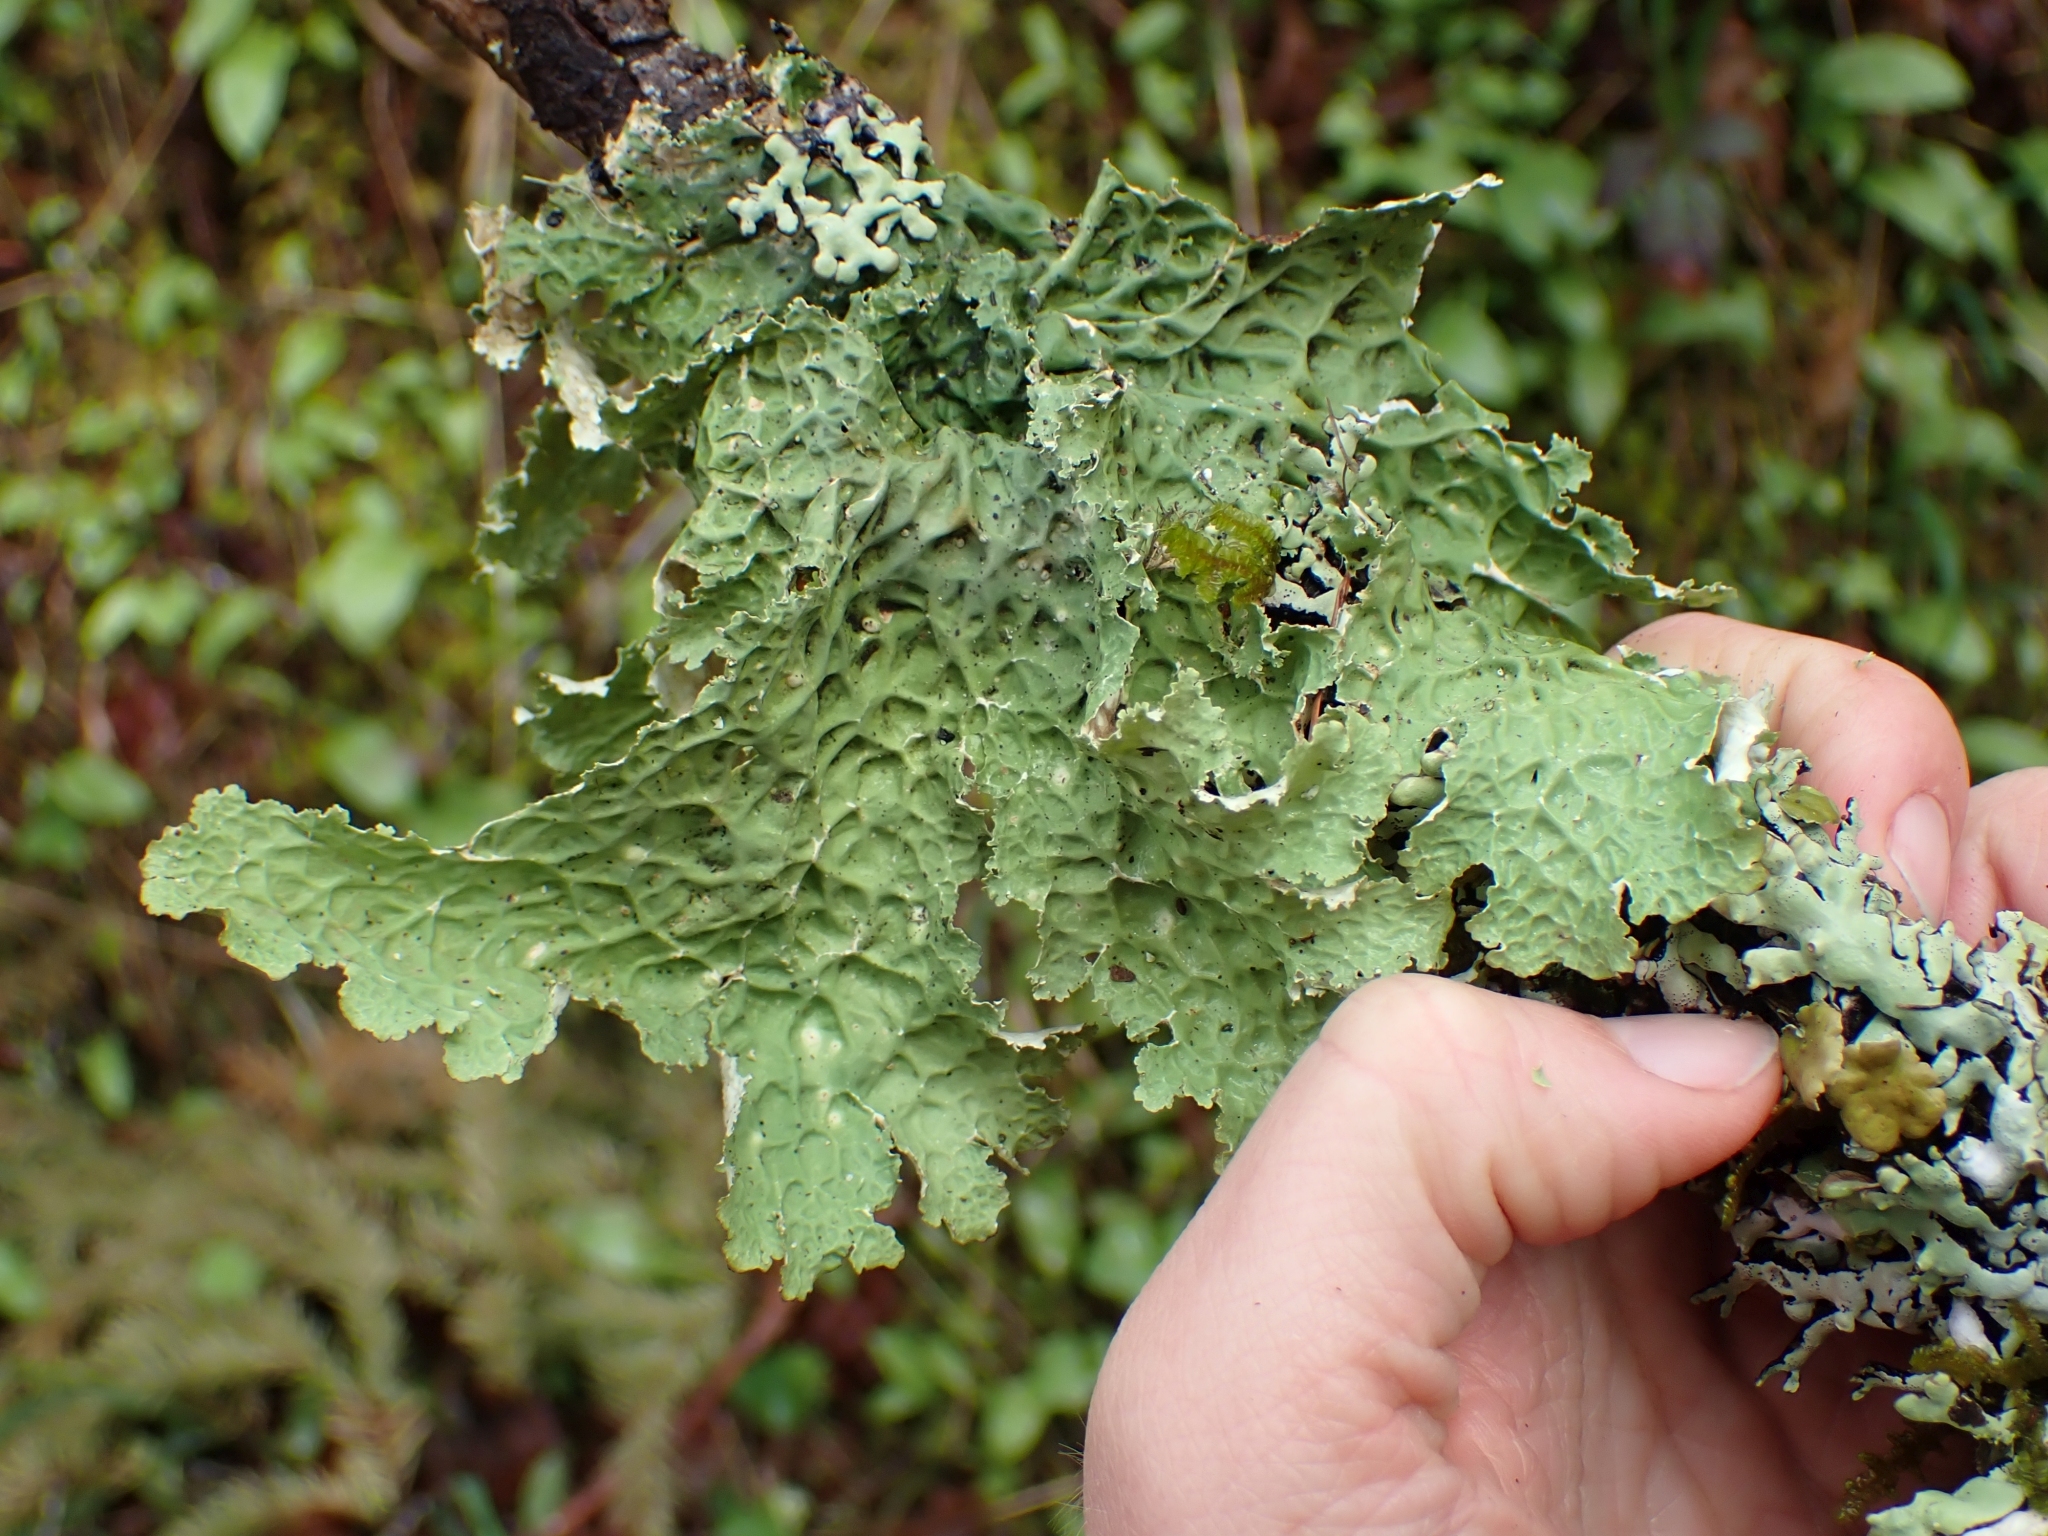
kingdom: Fungi
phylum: Ascomycota
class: Lecanoromycetes
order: Peltigerales
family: Lobariaceae
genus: Lobaria
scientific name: Lobaria oregana
